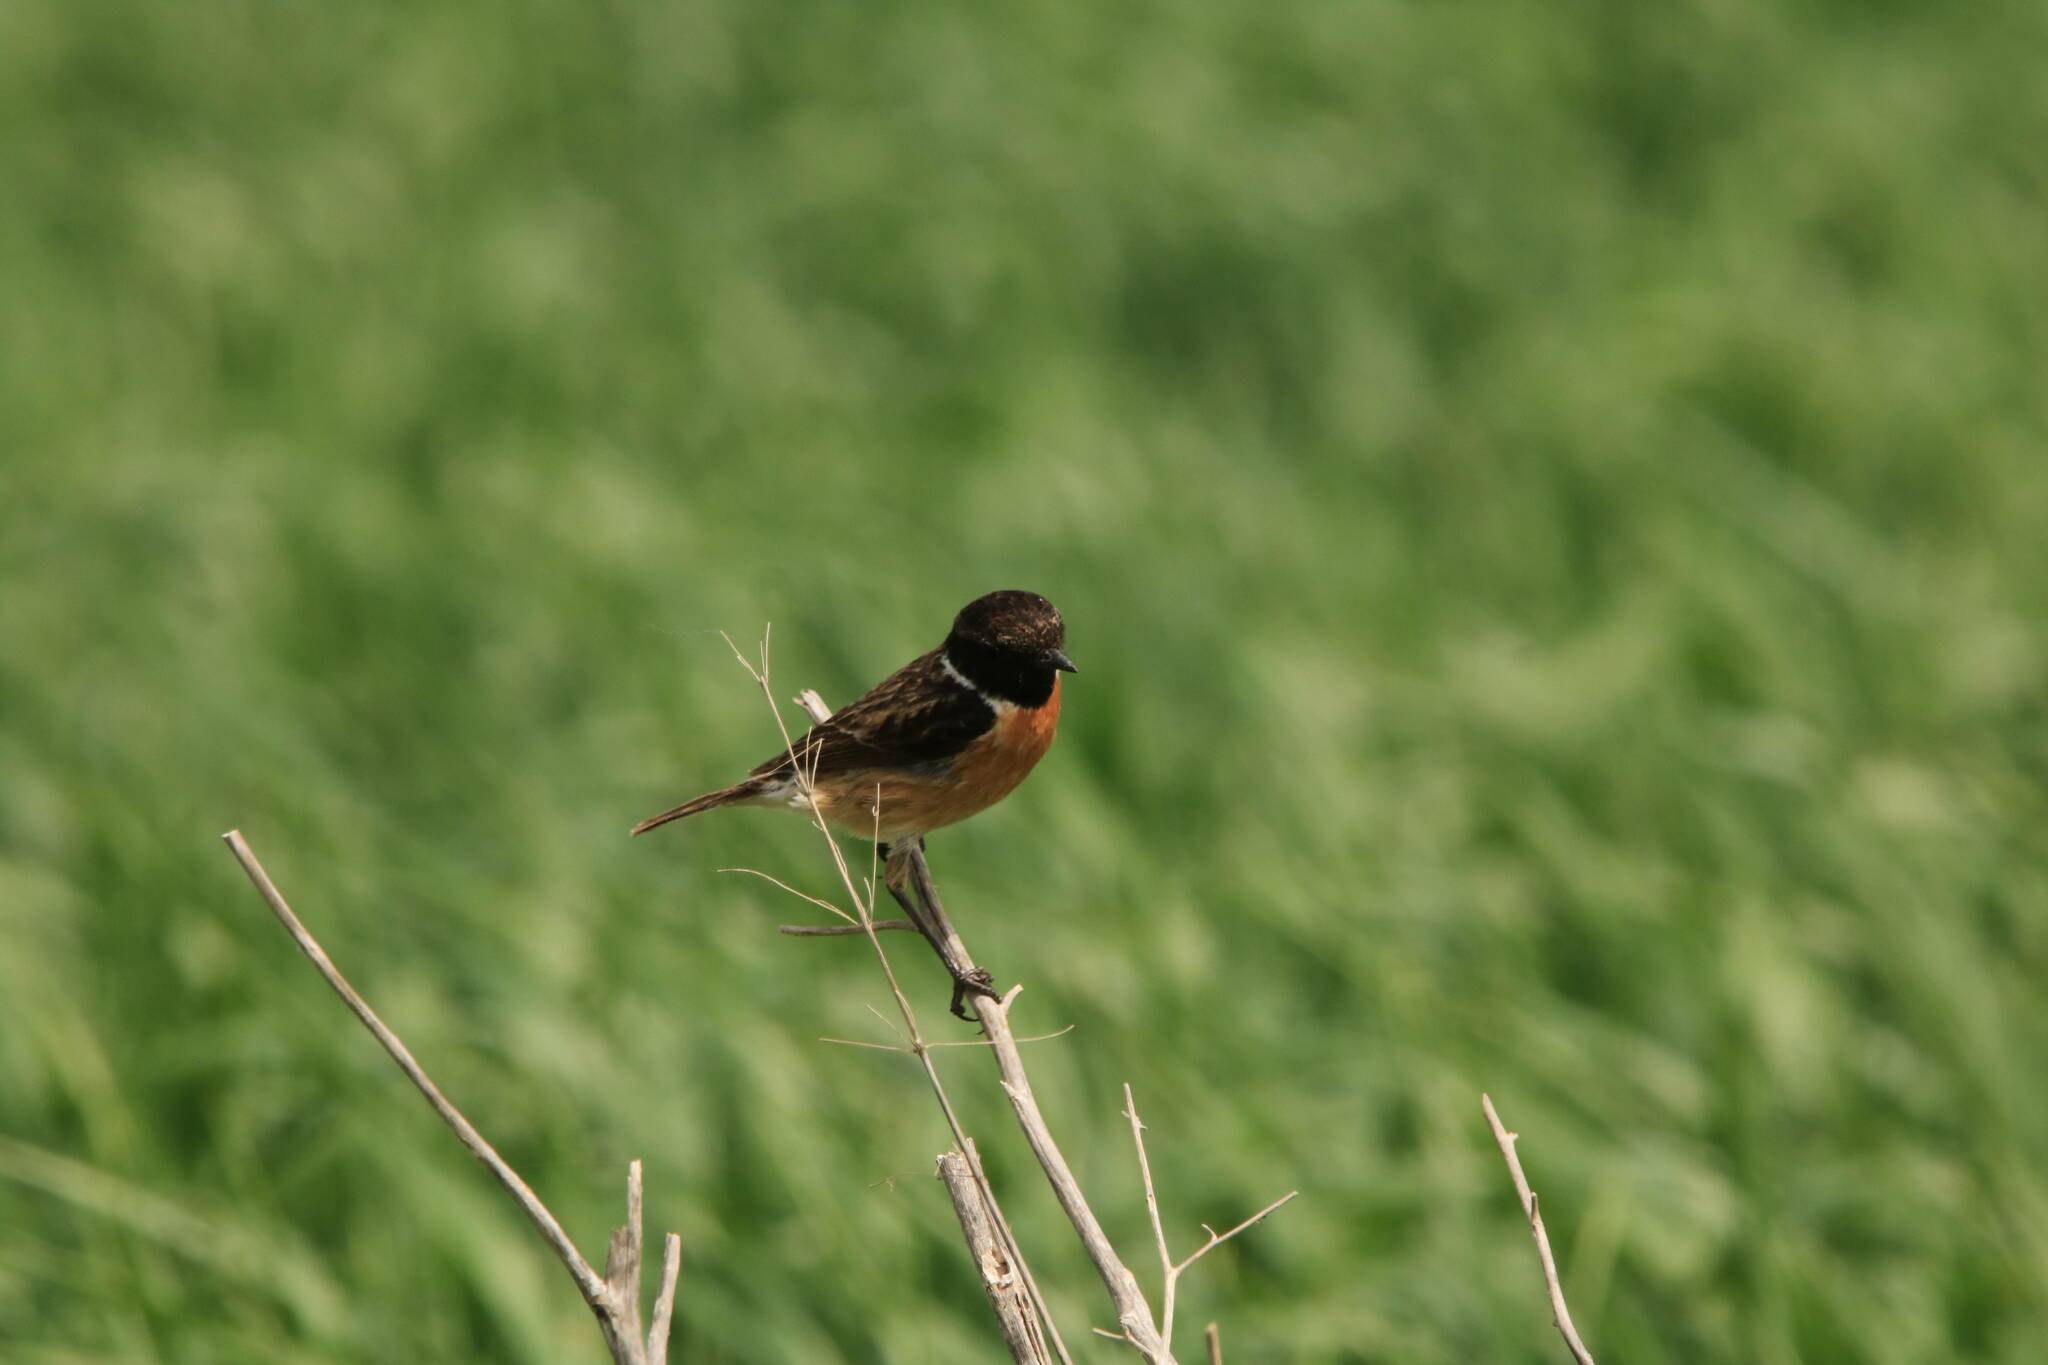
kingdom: Animalia
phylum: Chordata
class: Aves
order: Passeriformes
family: Muscicapidae
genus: Saxicola
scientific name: Saxicola rubicola
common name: European stonechat
